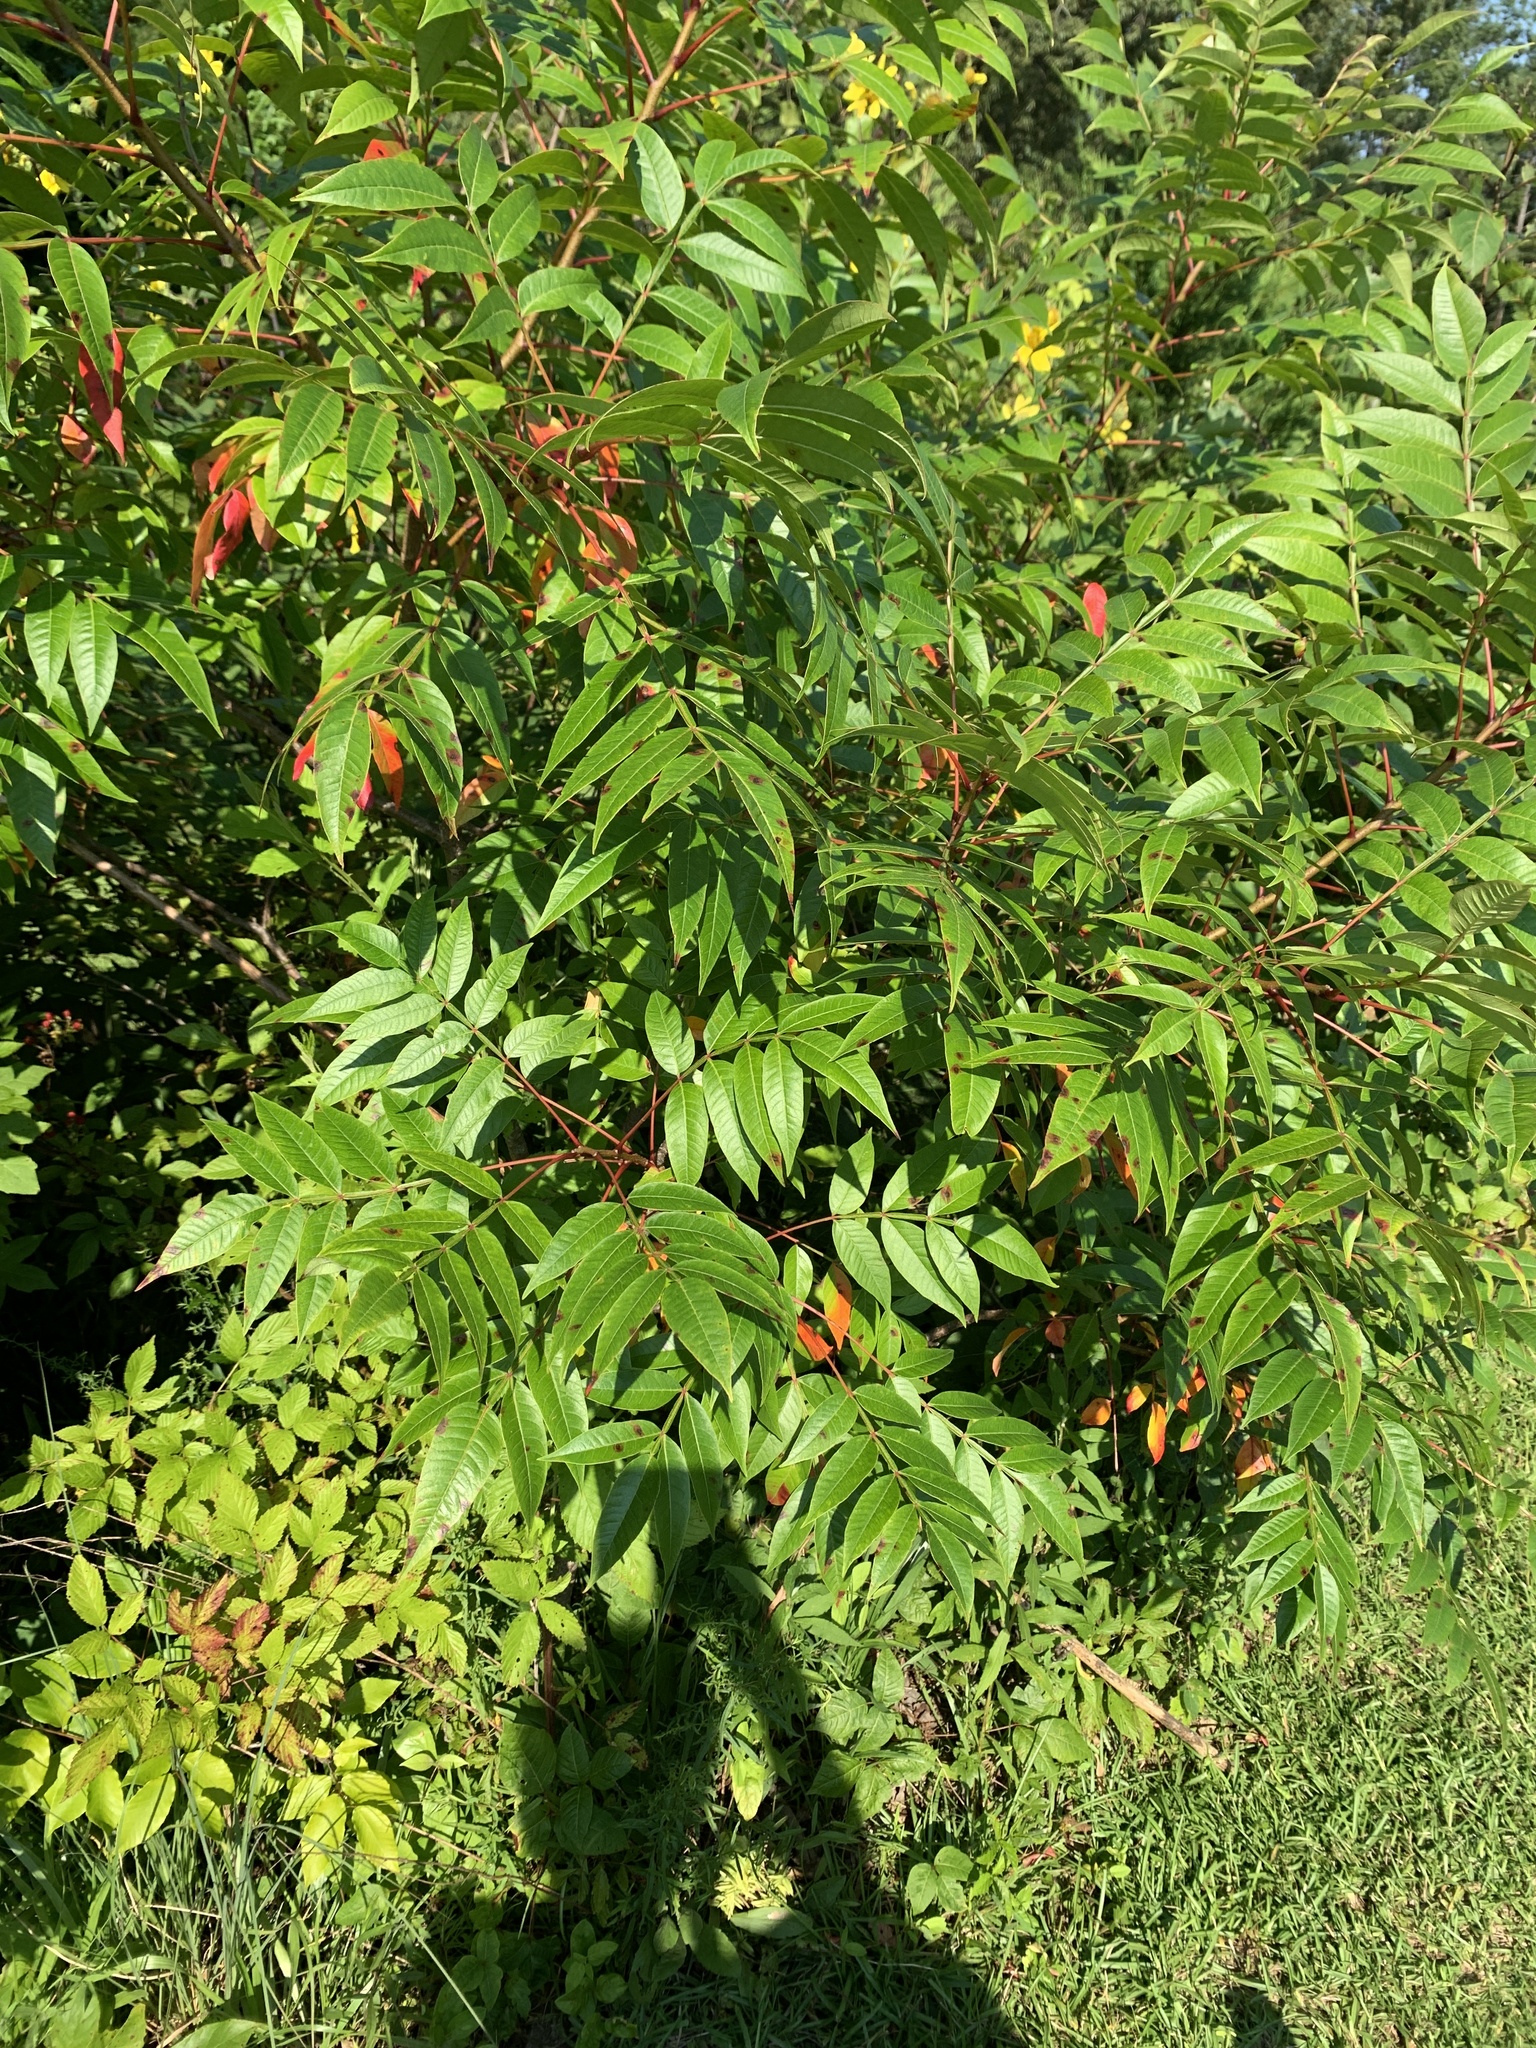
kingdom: Plantae
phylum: Tracheophyta
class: Magnoliopsida
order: Sapindales
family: Anacardiaceae
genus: Rhus
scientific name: Rhus copallina
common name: Shining sumac
